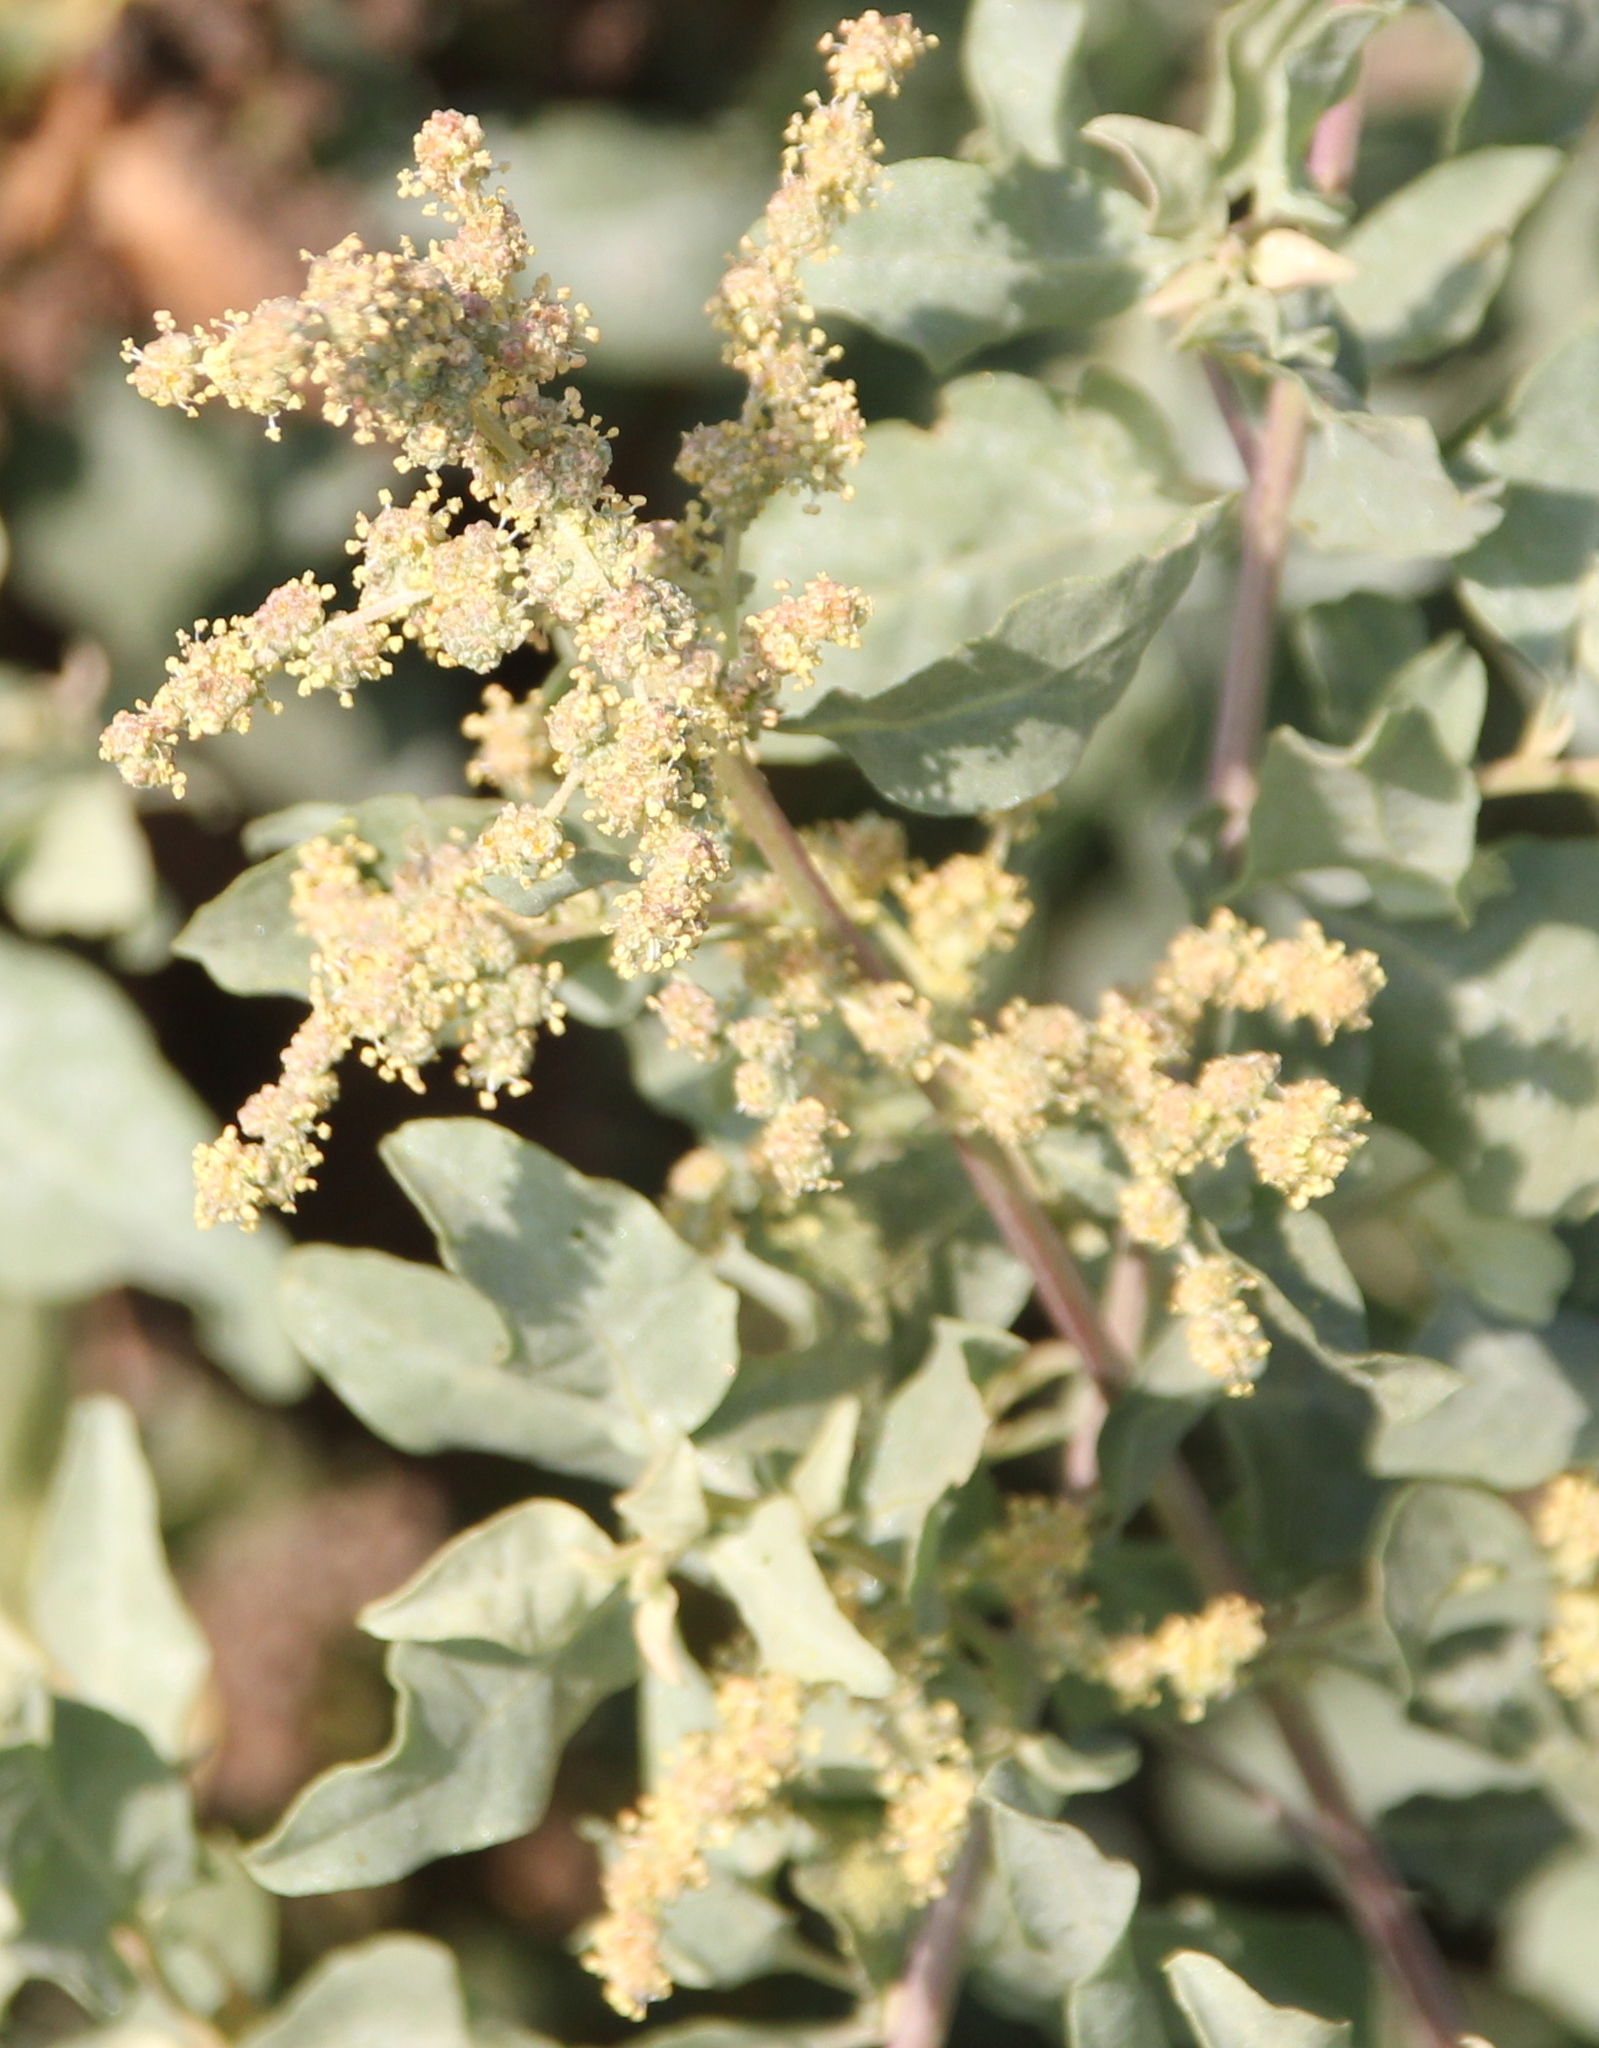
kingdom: Plantae
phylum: Tracheophyta
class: Magnoliopsida
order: Caryophyllales
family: Amaranthaceae
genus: Atriplex
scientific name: Atriplex lentiformis
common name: Big saltbush
